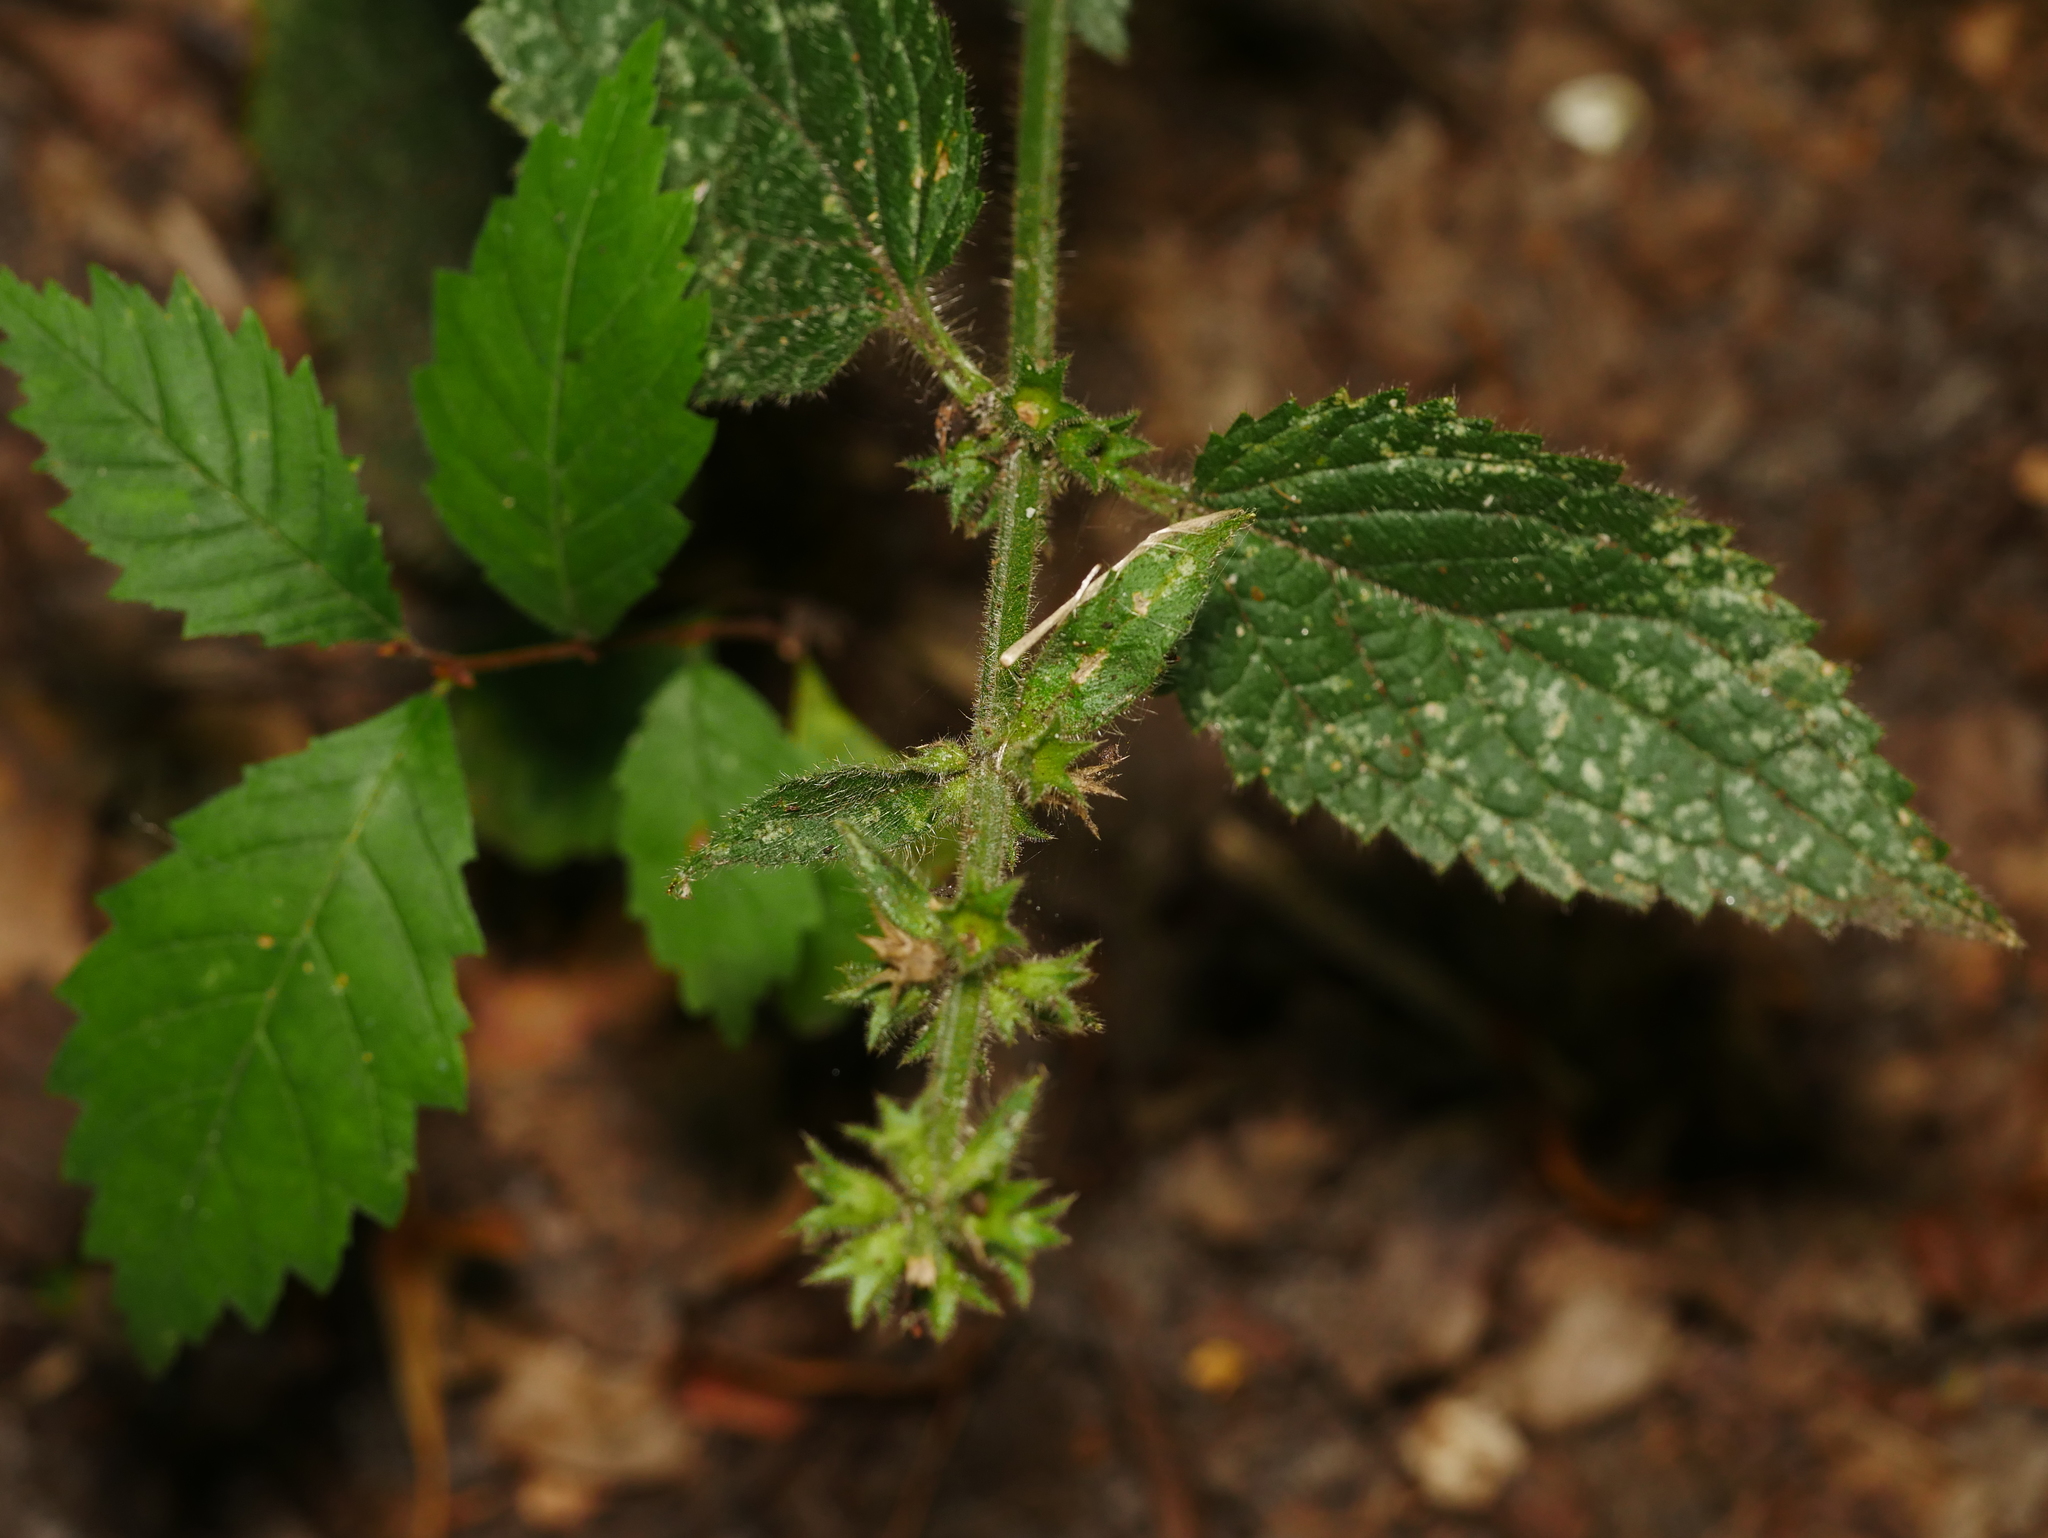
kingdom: Plantae
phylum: Tracheophyta
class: Magnoliopsida
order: Lamiales
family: Lamiaceae
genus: Stachys
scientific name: Stachys sylvatica
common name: Hedge woundwort
